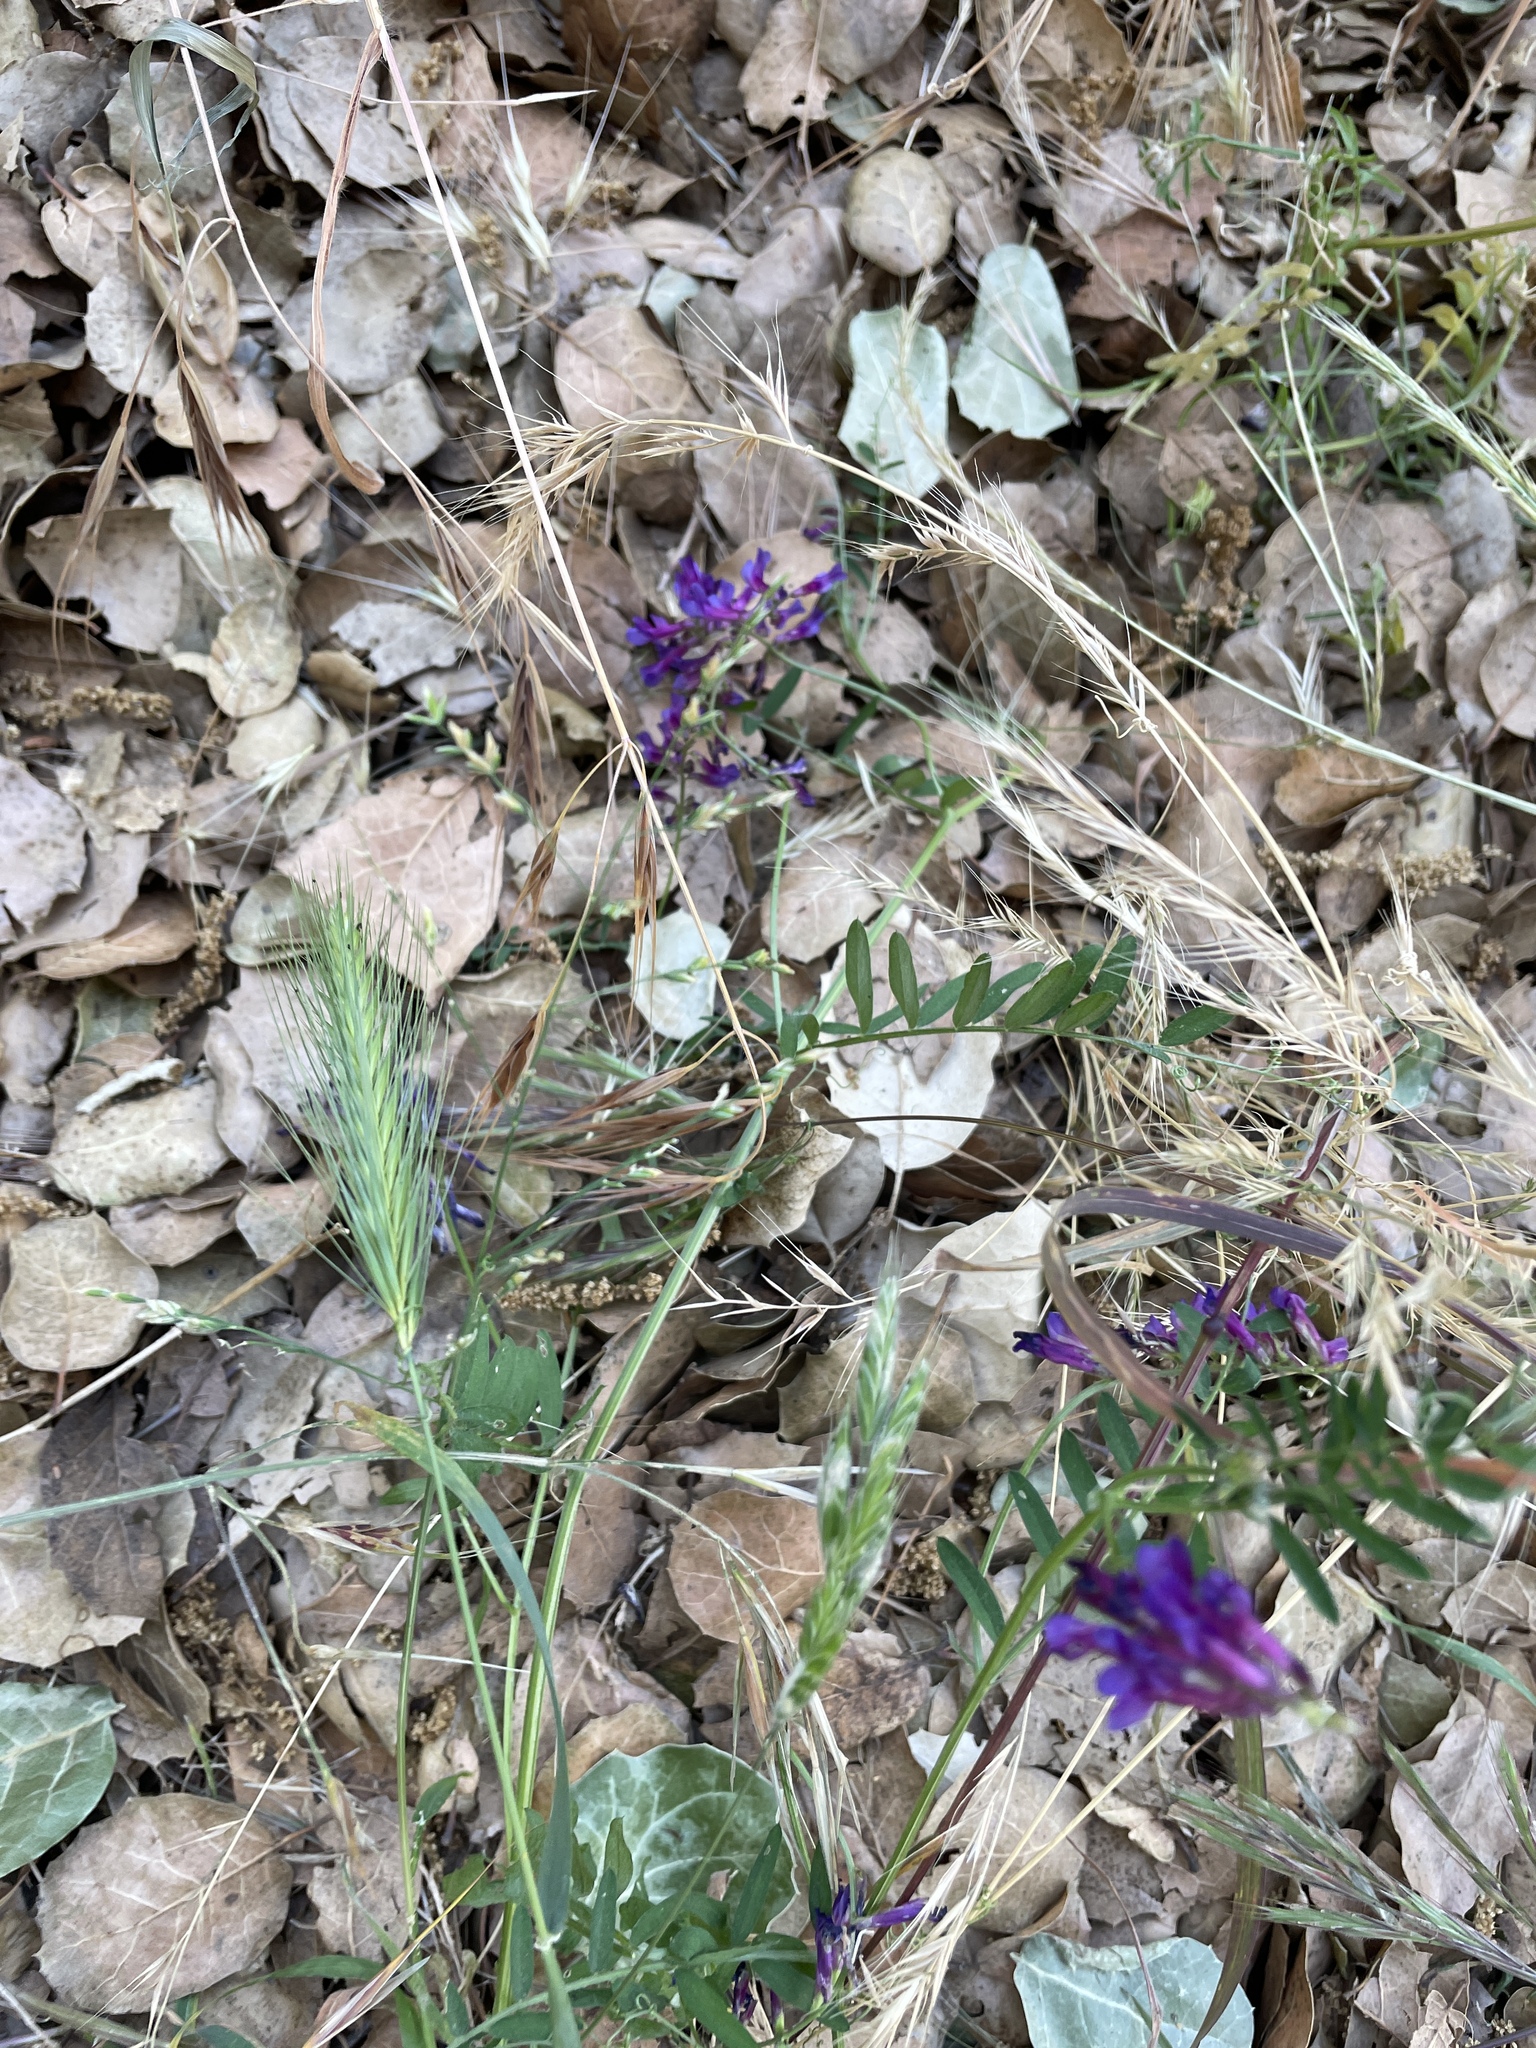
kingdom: Plantae
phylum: Tracheophyta
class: Magnoliopsida
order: Fabales
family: Fabaceae
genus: Vicia
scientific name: Vicia villosa
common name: Fodder vetch
